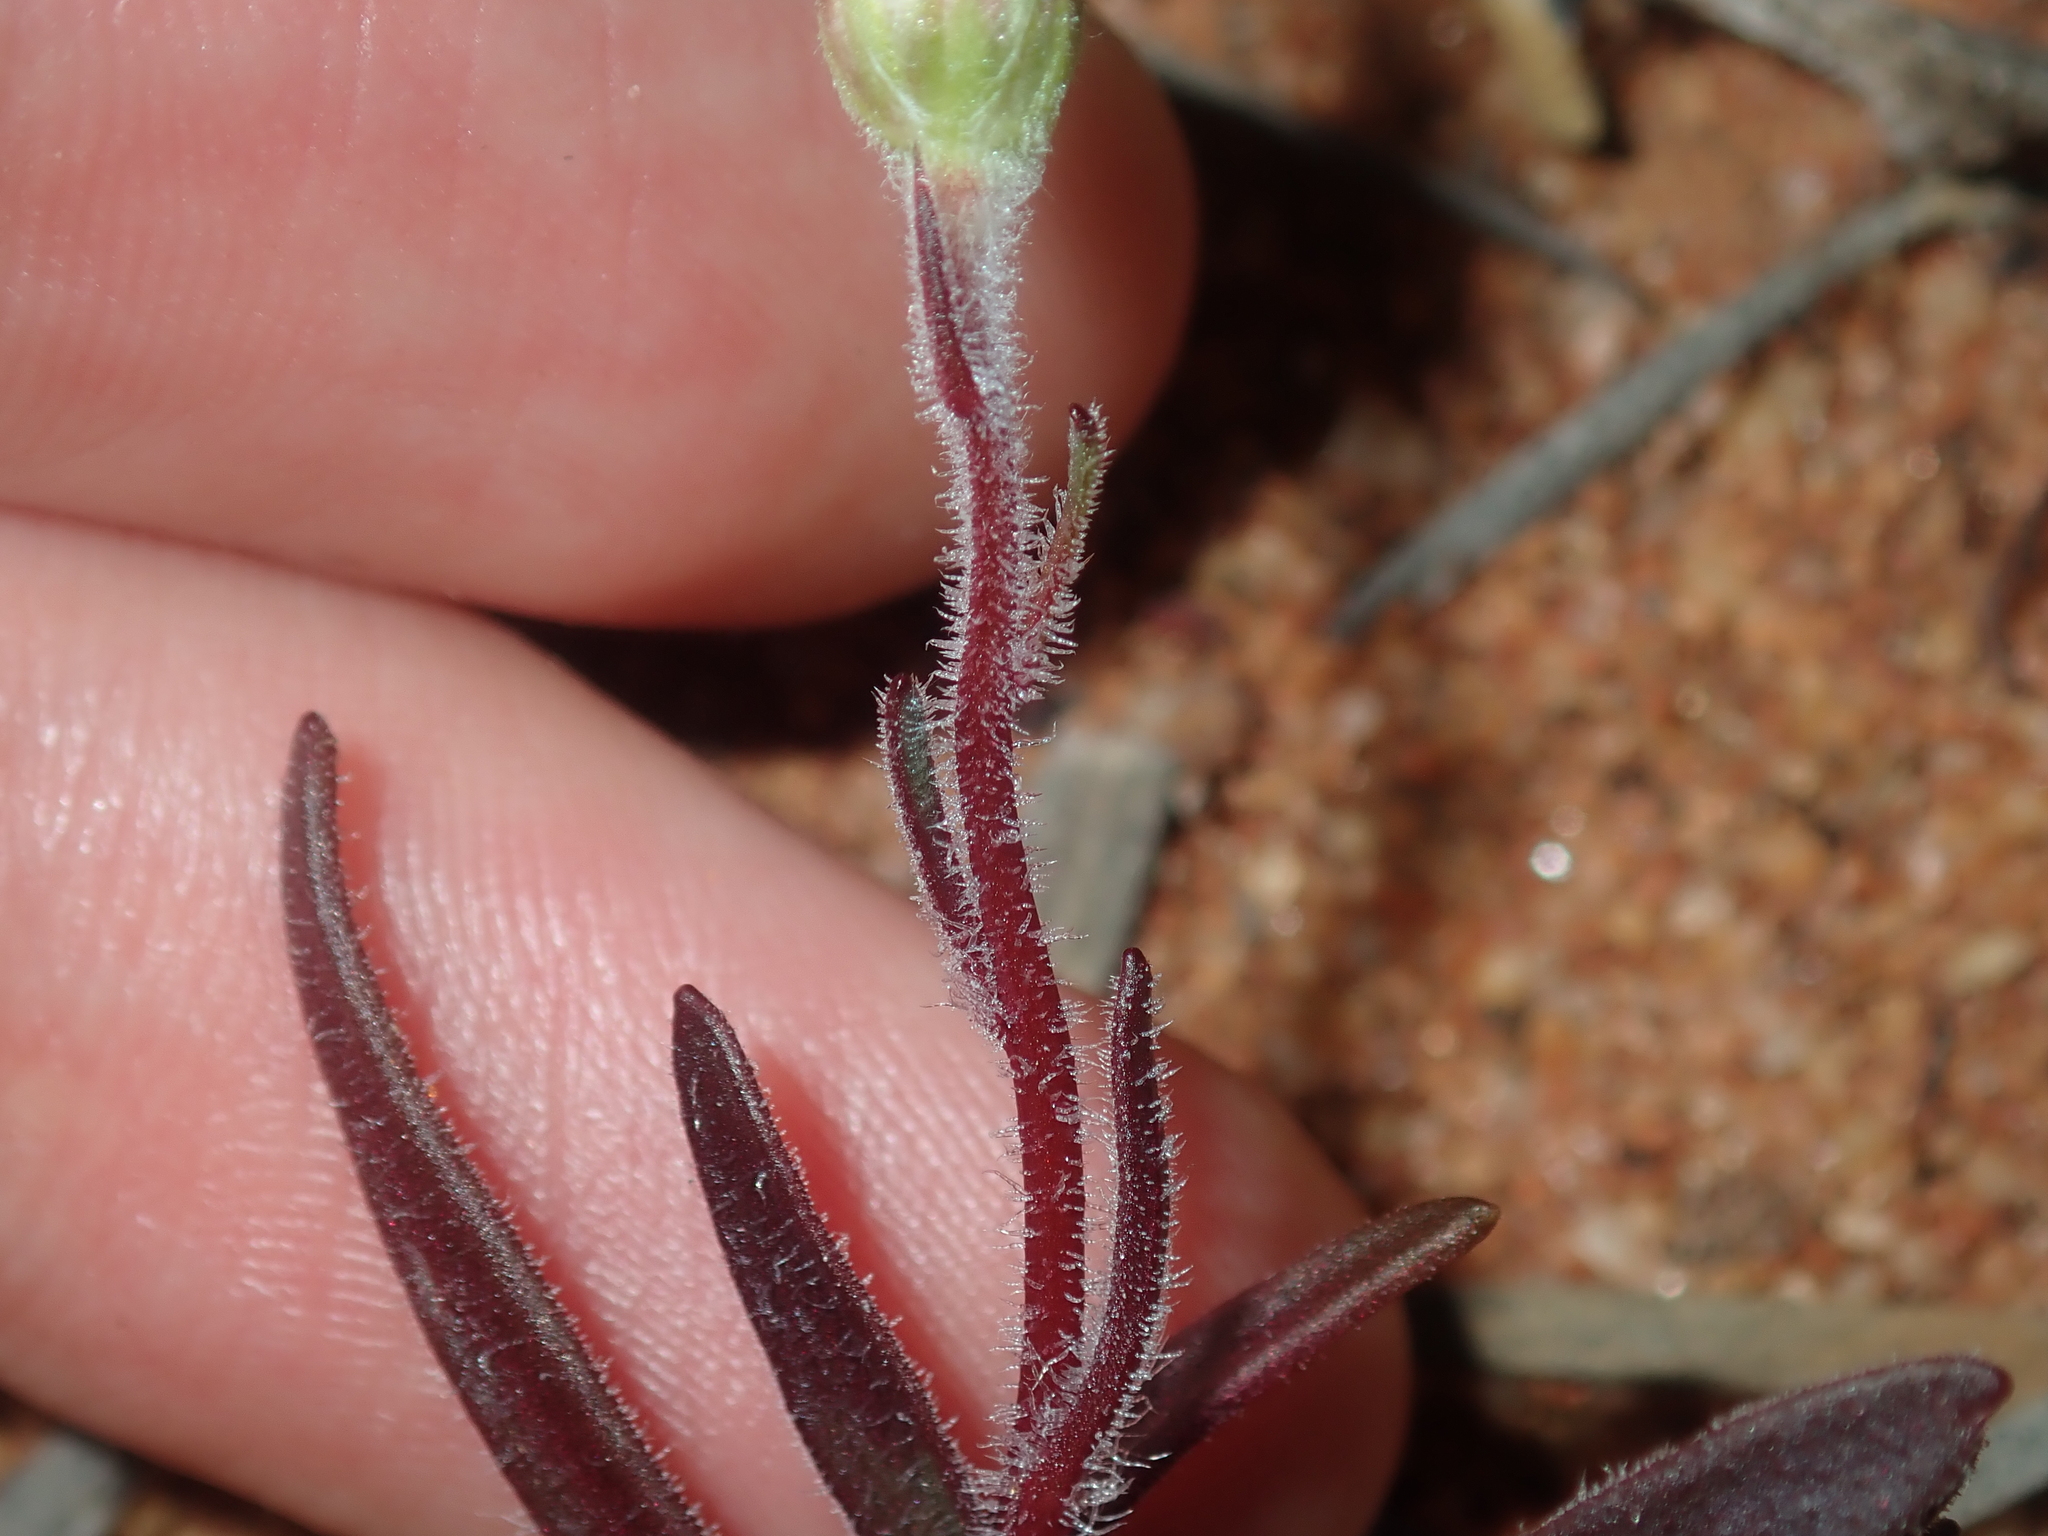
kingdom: Plantae
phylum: Tracheophyta
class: Magnoliopsida
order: Asterales
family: Asteraceae
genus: Lawrencella
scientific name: Lawrencella davenportii
